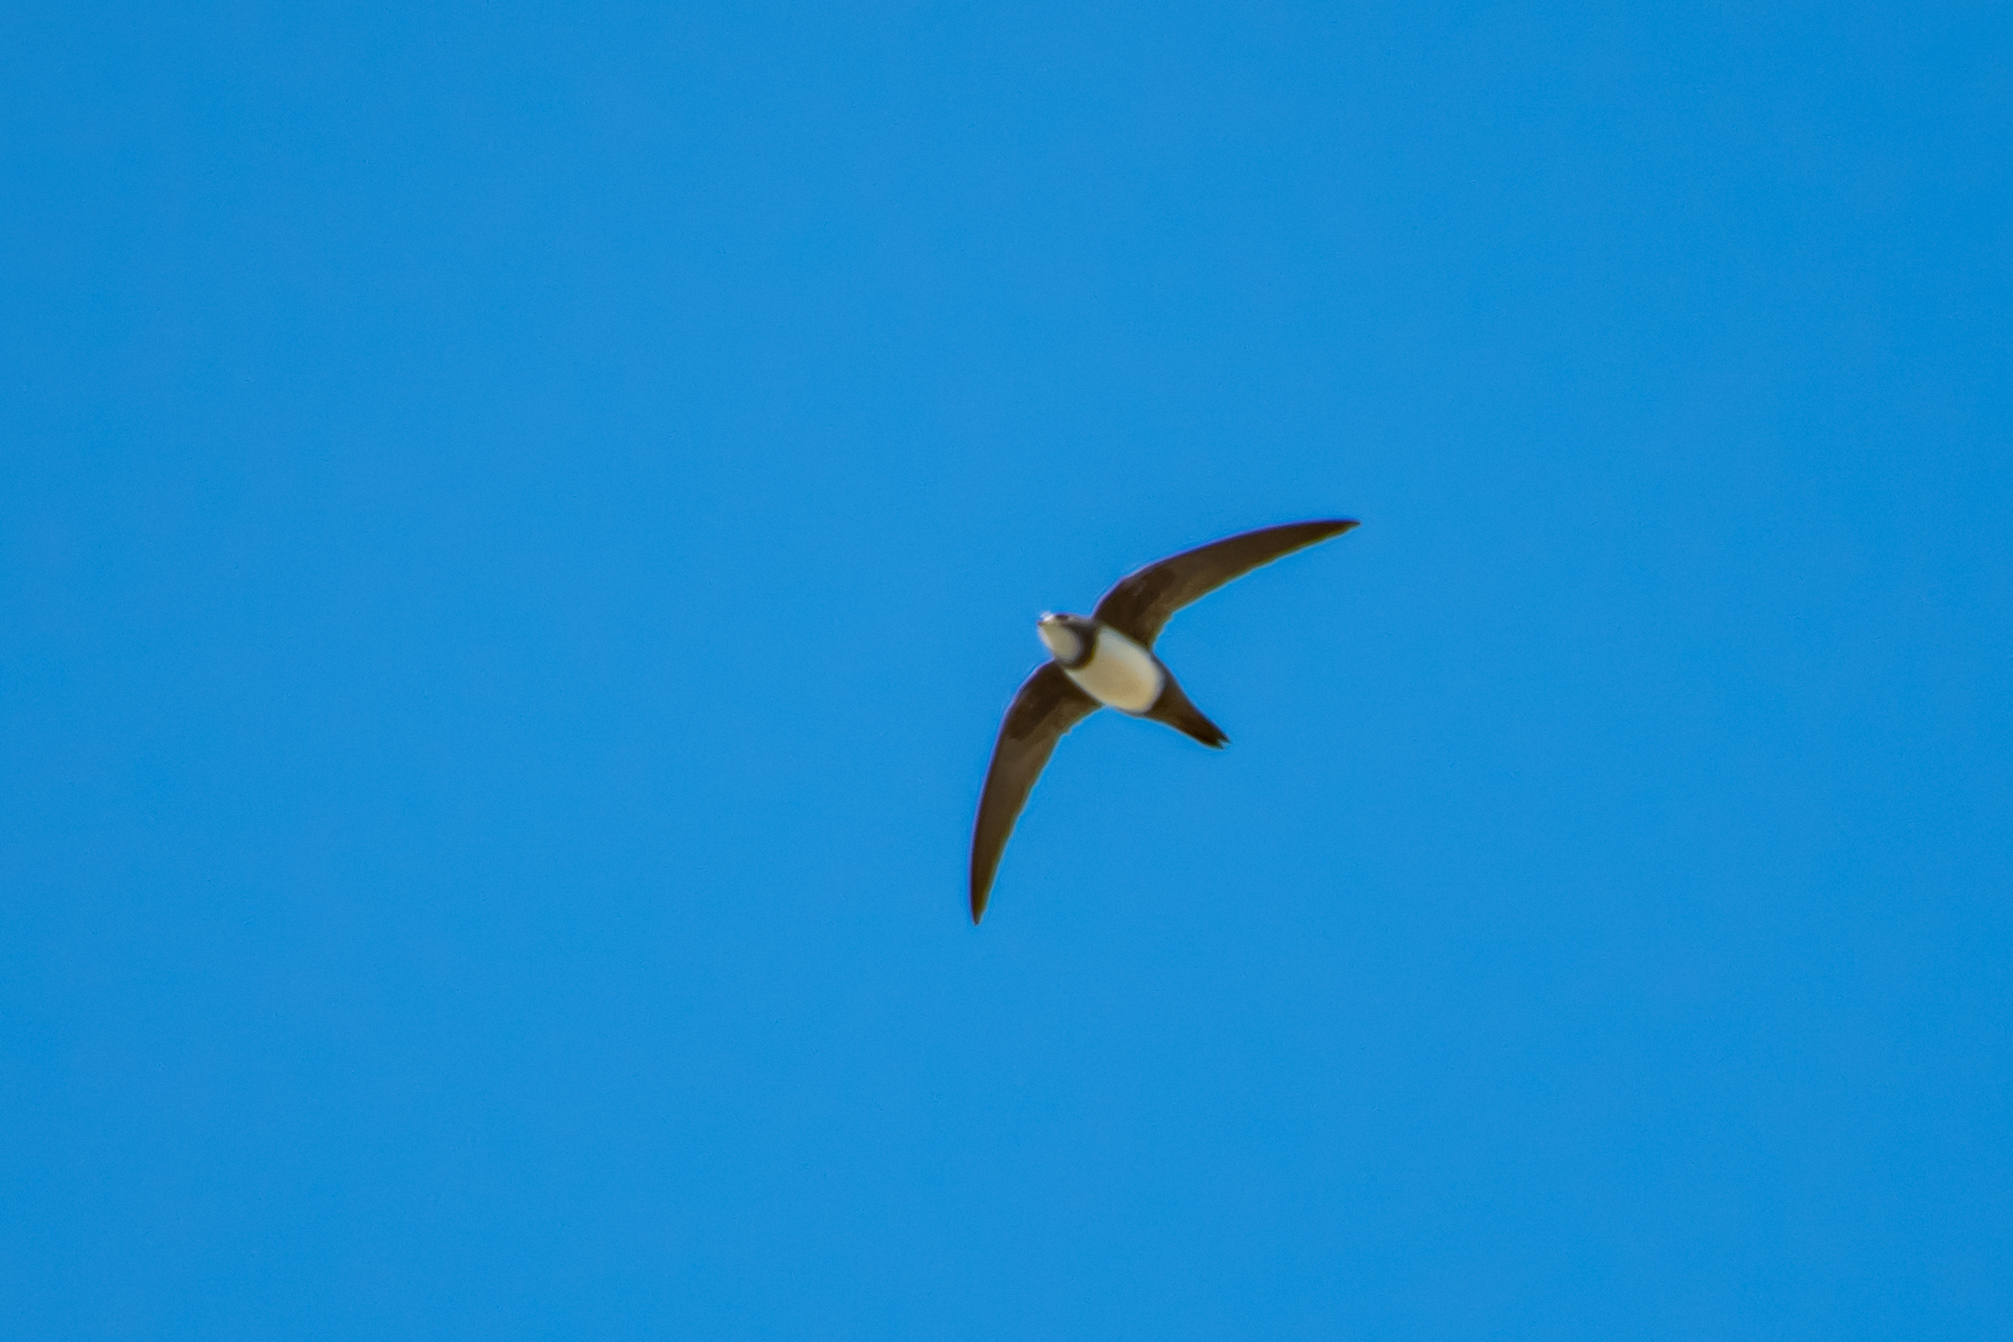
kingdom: Animalia
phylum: Chordata
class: Aves
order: Apodiformes
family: Apodidae
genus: Tachymarptis
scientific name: Tachymarptis melba
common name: Alpine swift
